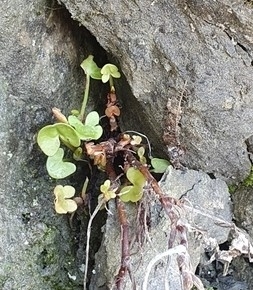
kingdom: Plantae
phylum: Tracheophyta
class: Magnoliopsida
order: Caryophyllales
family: Polygonaceae
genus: Rumex
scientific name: Rumex scutatus
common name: French sorrel
